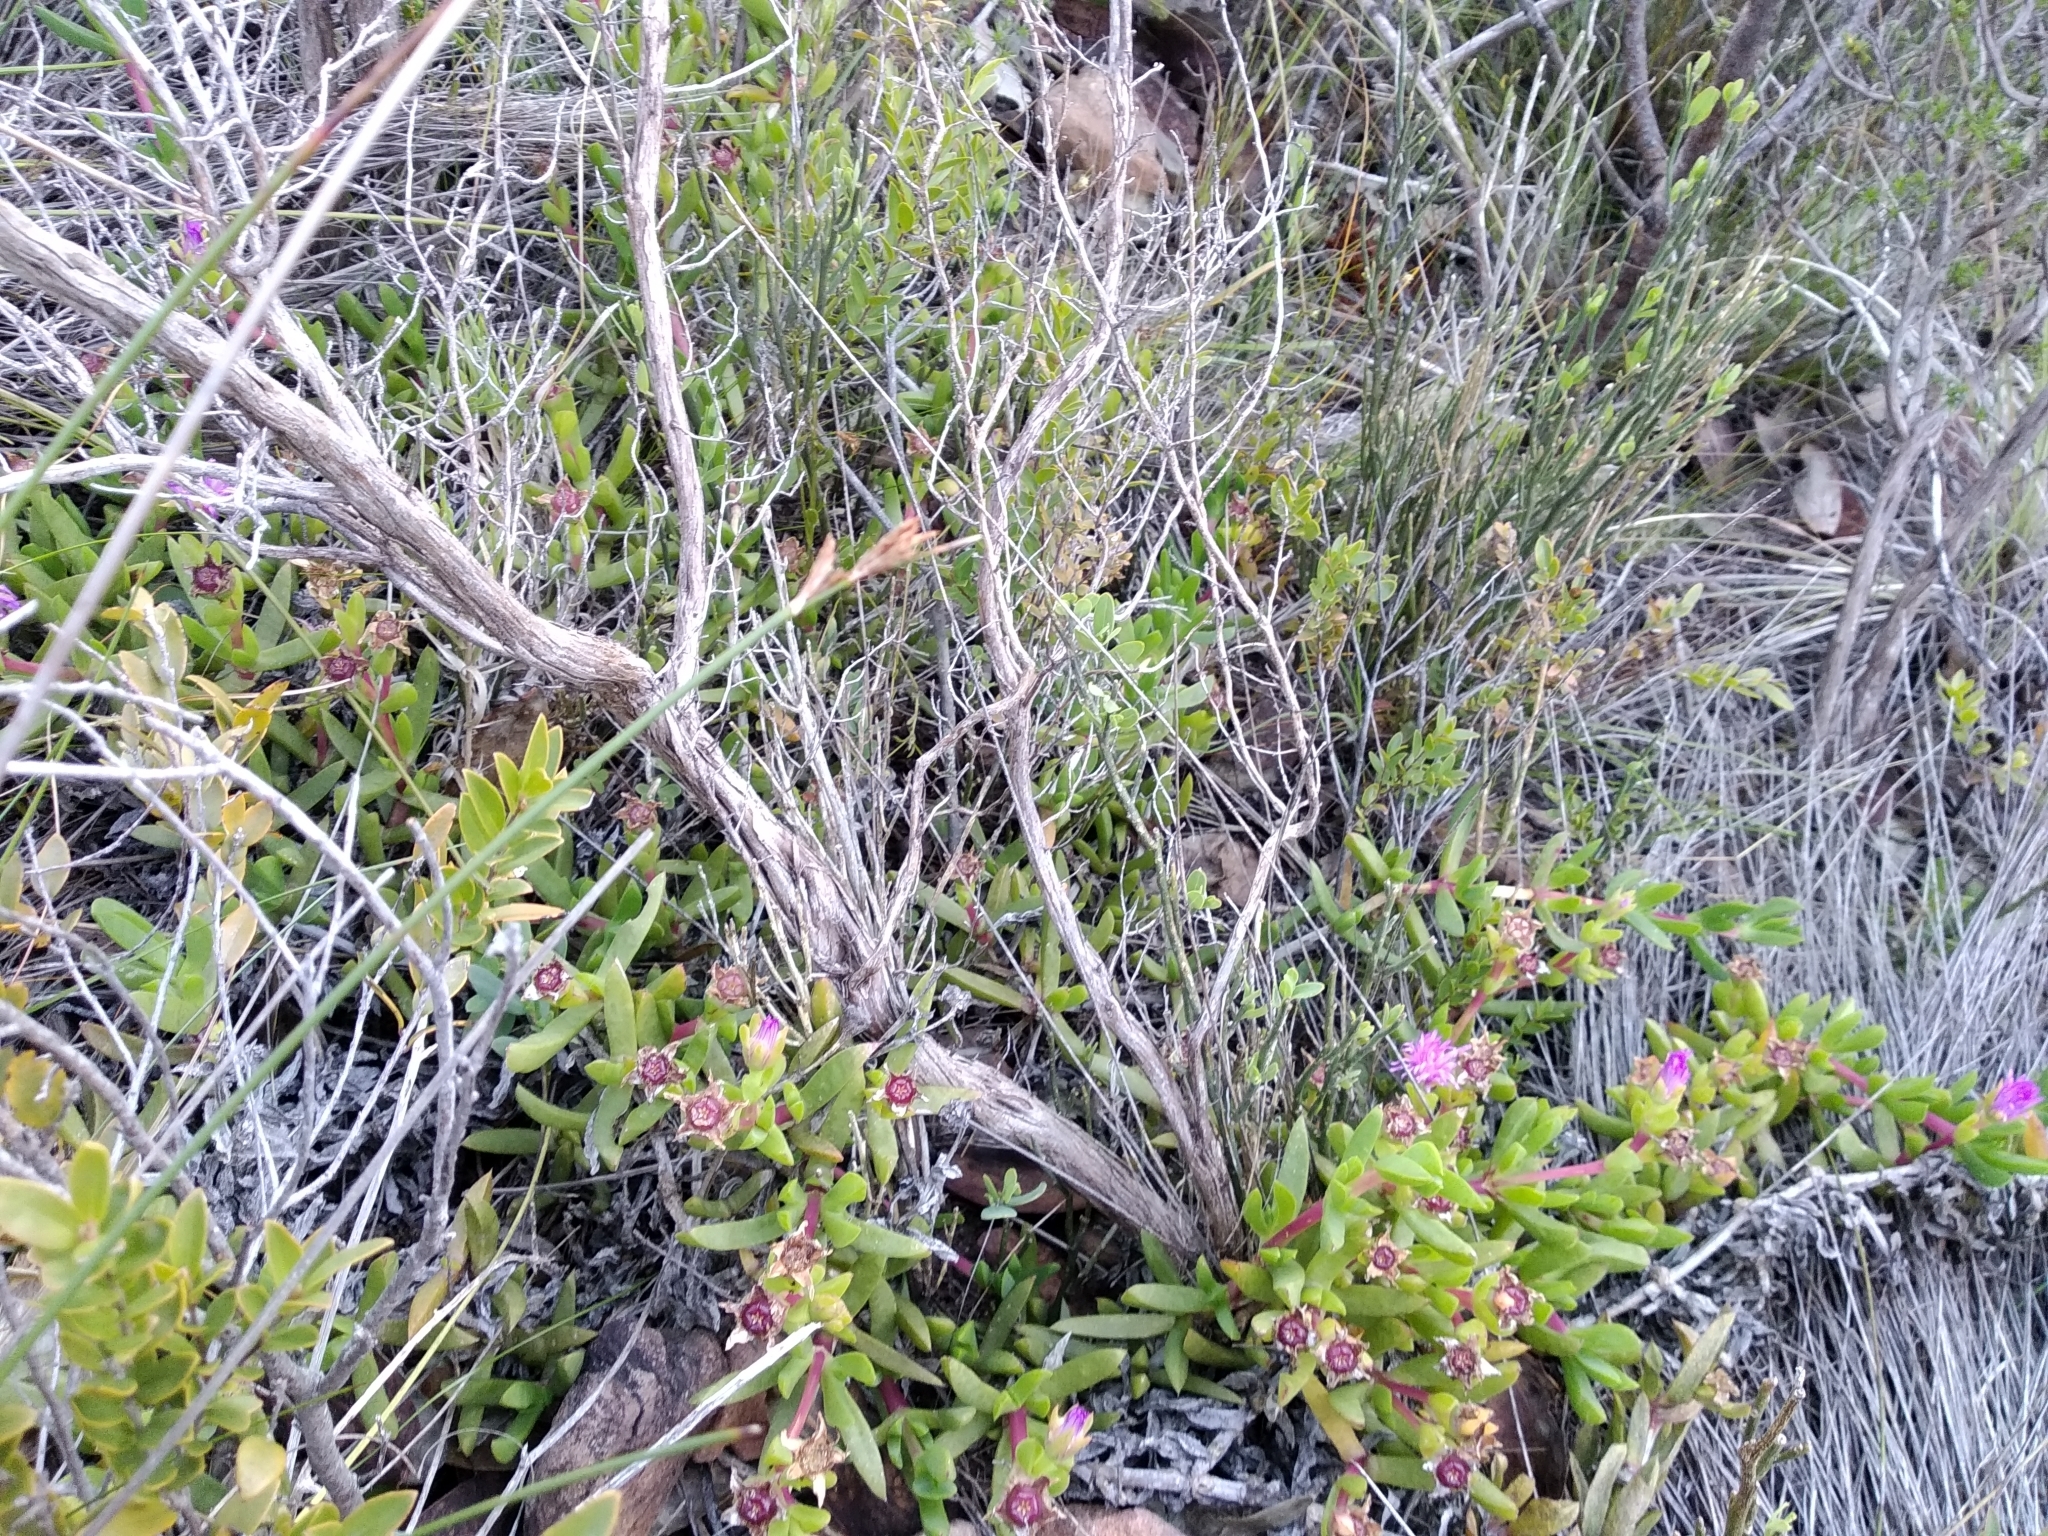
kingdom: Plantae
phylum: Tracheophyta
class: Magnoliopsida
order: Caryophyllales
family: Aizoaceae
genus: Ruschia
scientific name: Ruschia rubricaulis
